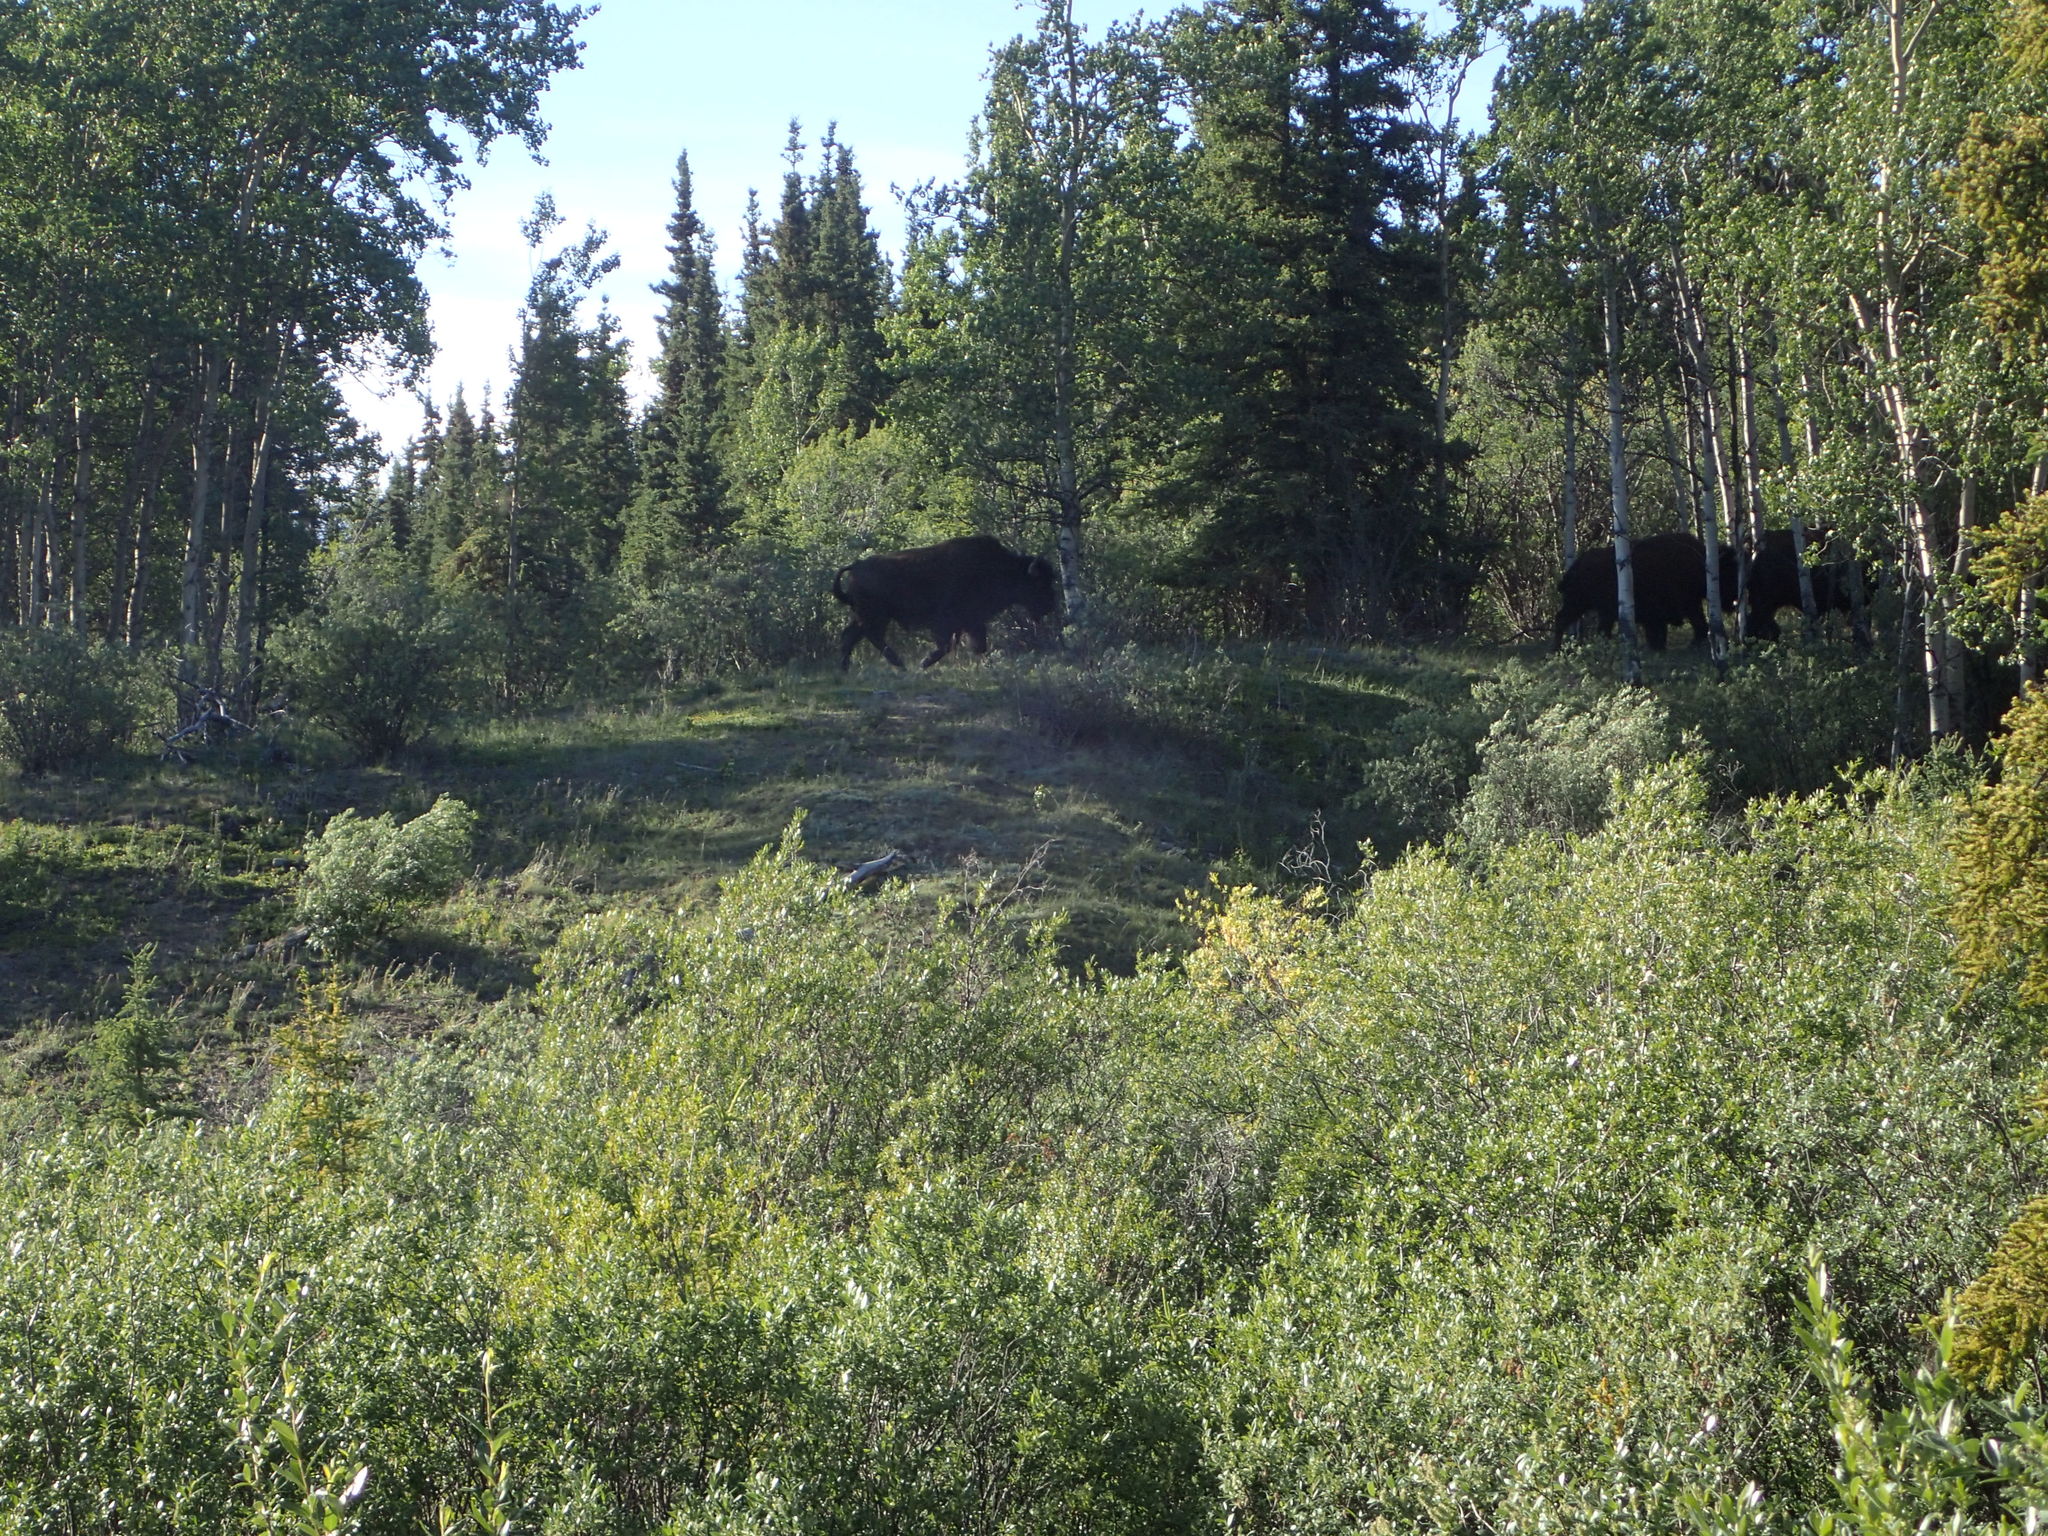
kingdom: Animalia
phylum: Chordata
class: Mammalia
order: Artiodactyla
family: Bovidae
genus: Bison
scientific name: Bison bison
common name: American bison
